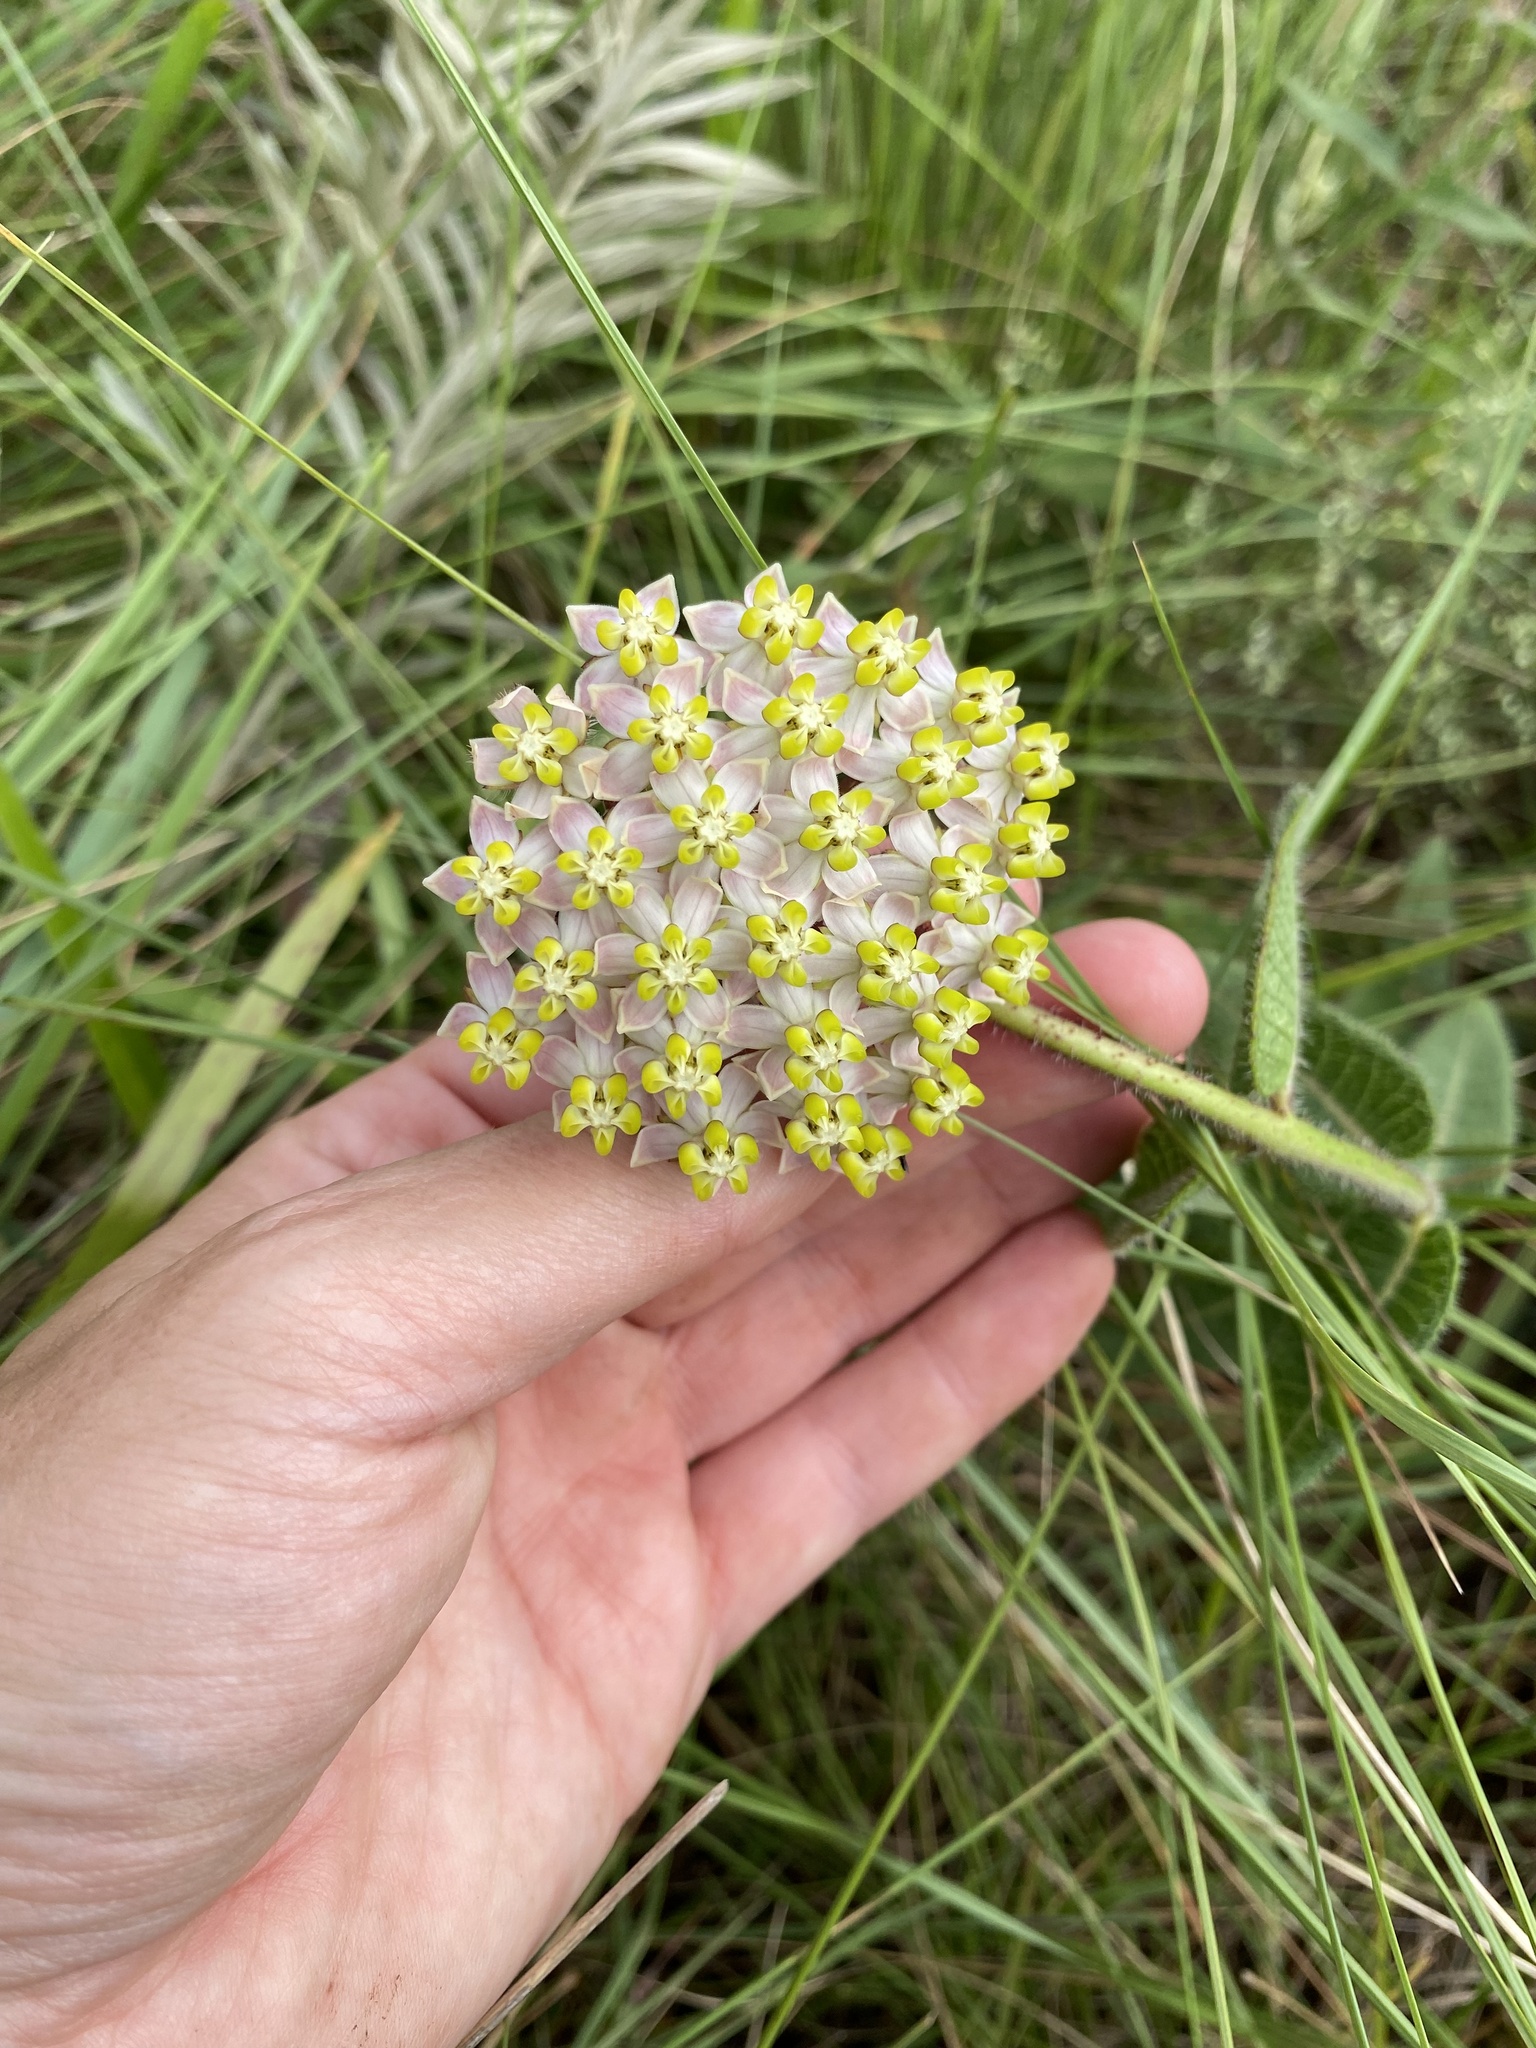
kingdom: Plantae
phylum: Tracheophyta
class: Magnoliopsida
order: Gentianales
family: Apocynaceae
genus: Asclepias
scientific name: Asclepias albens
